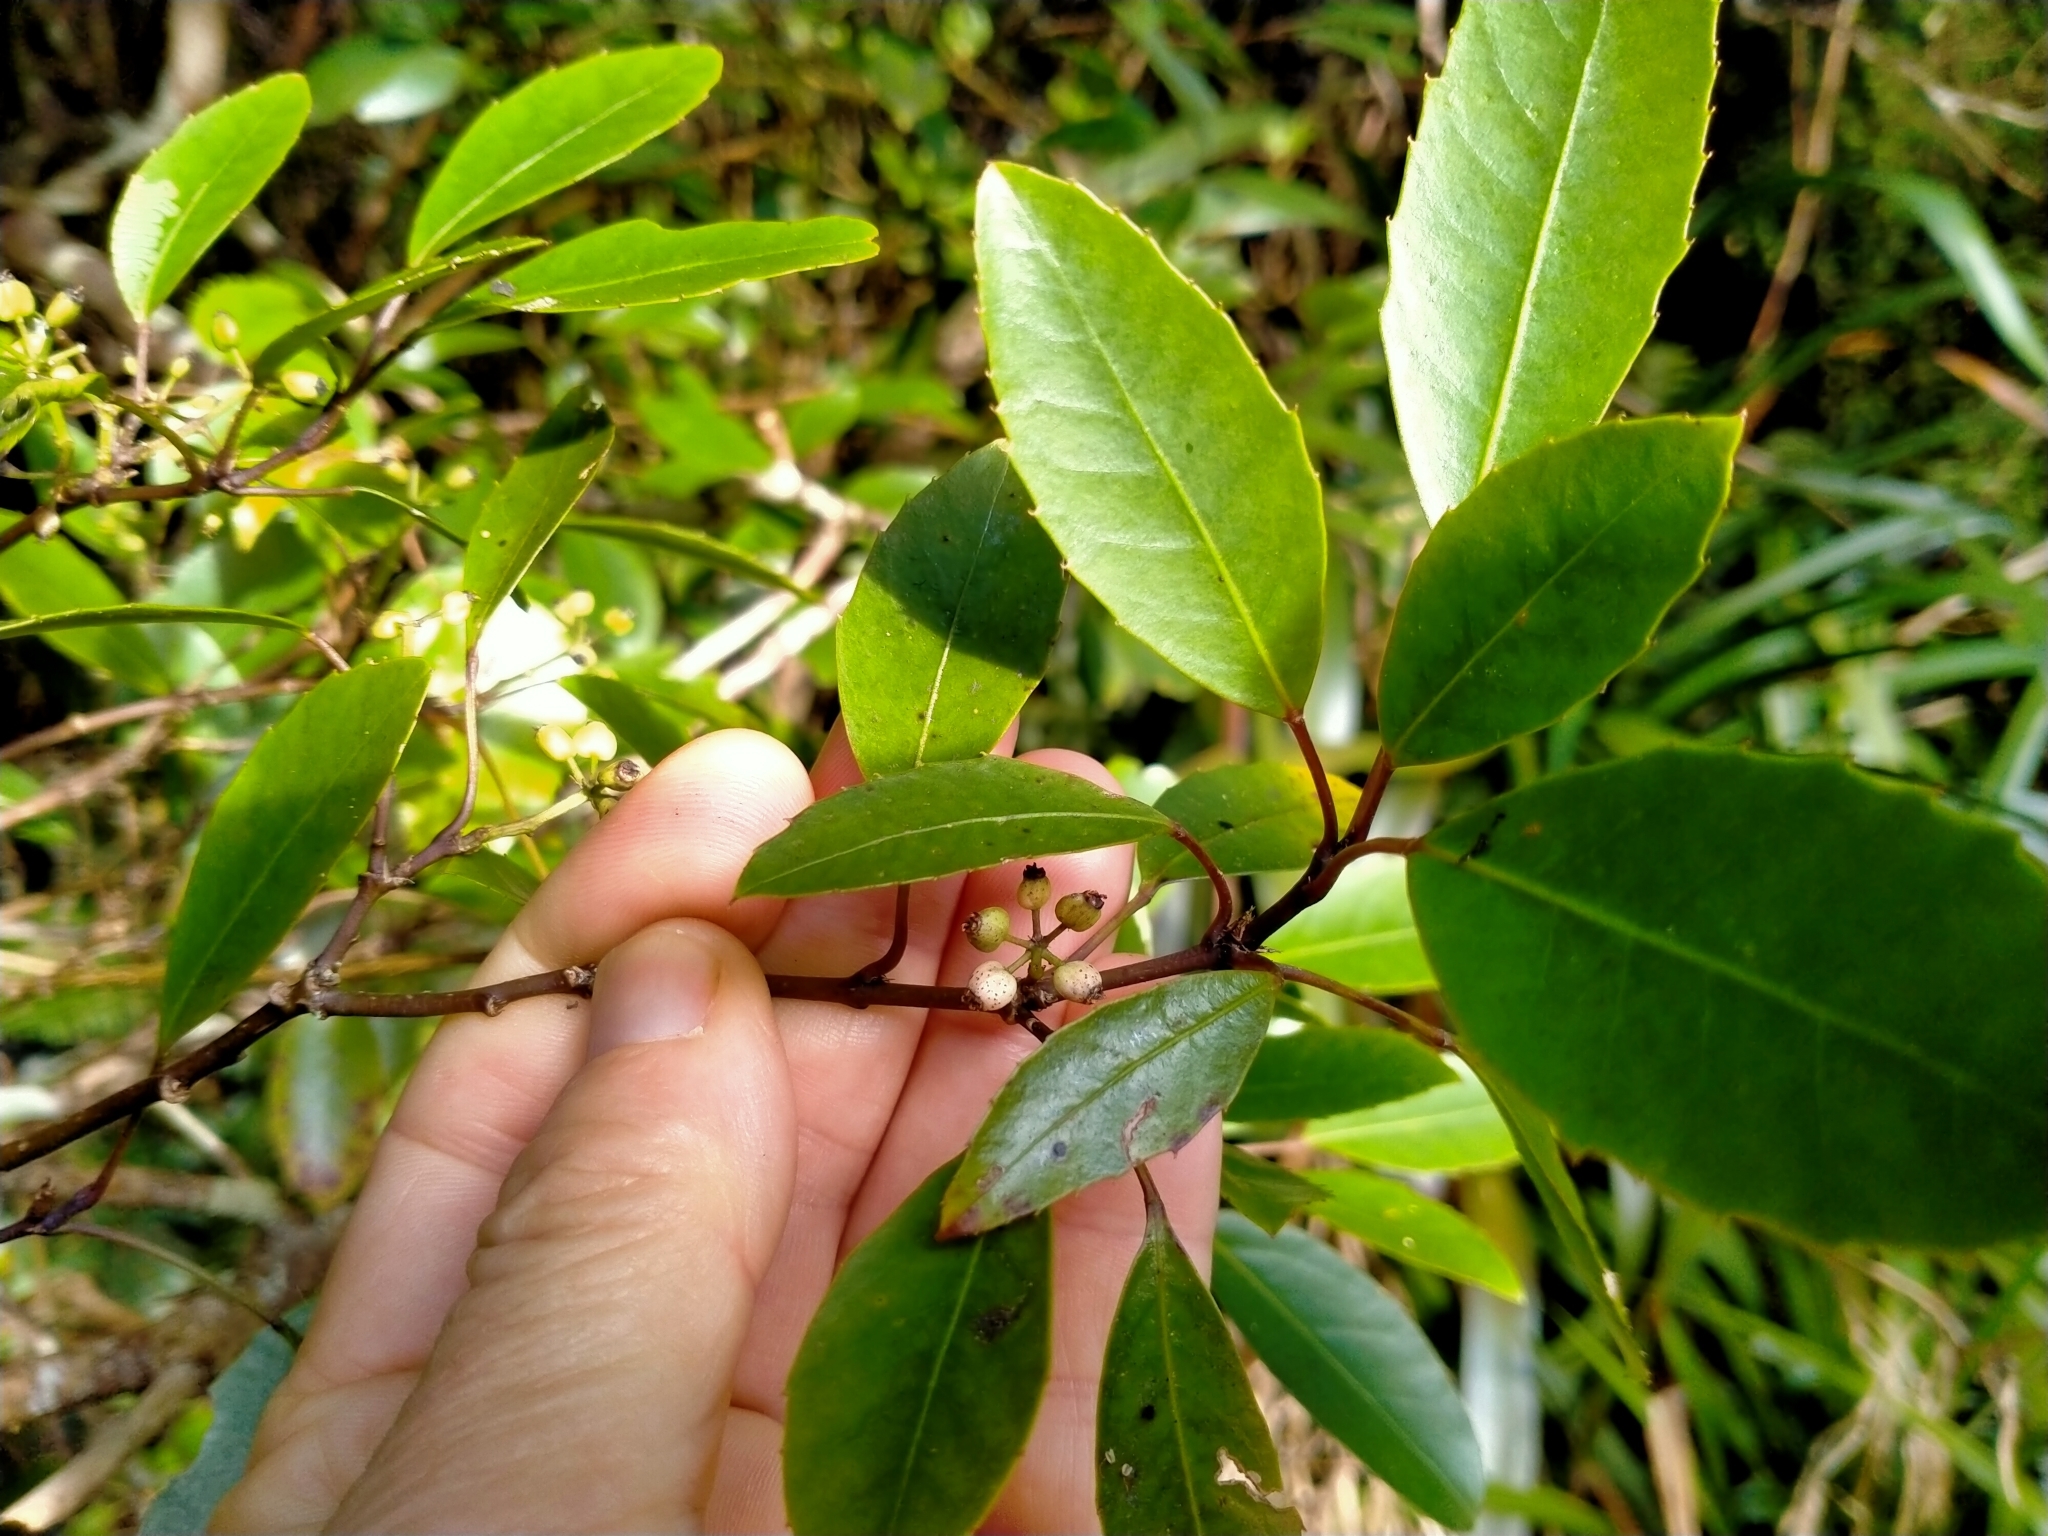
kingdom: Plantae
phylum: Tracheophyta
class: Magnoliopsida
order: Apiales
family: Araliaceae
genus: Raukaua
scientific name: Raukaua simplex
